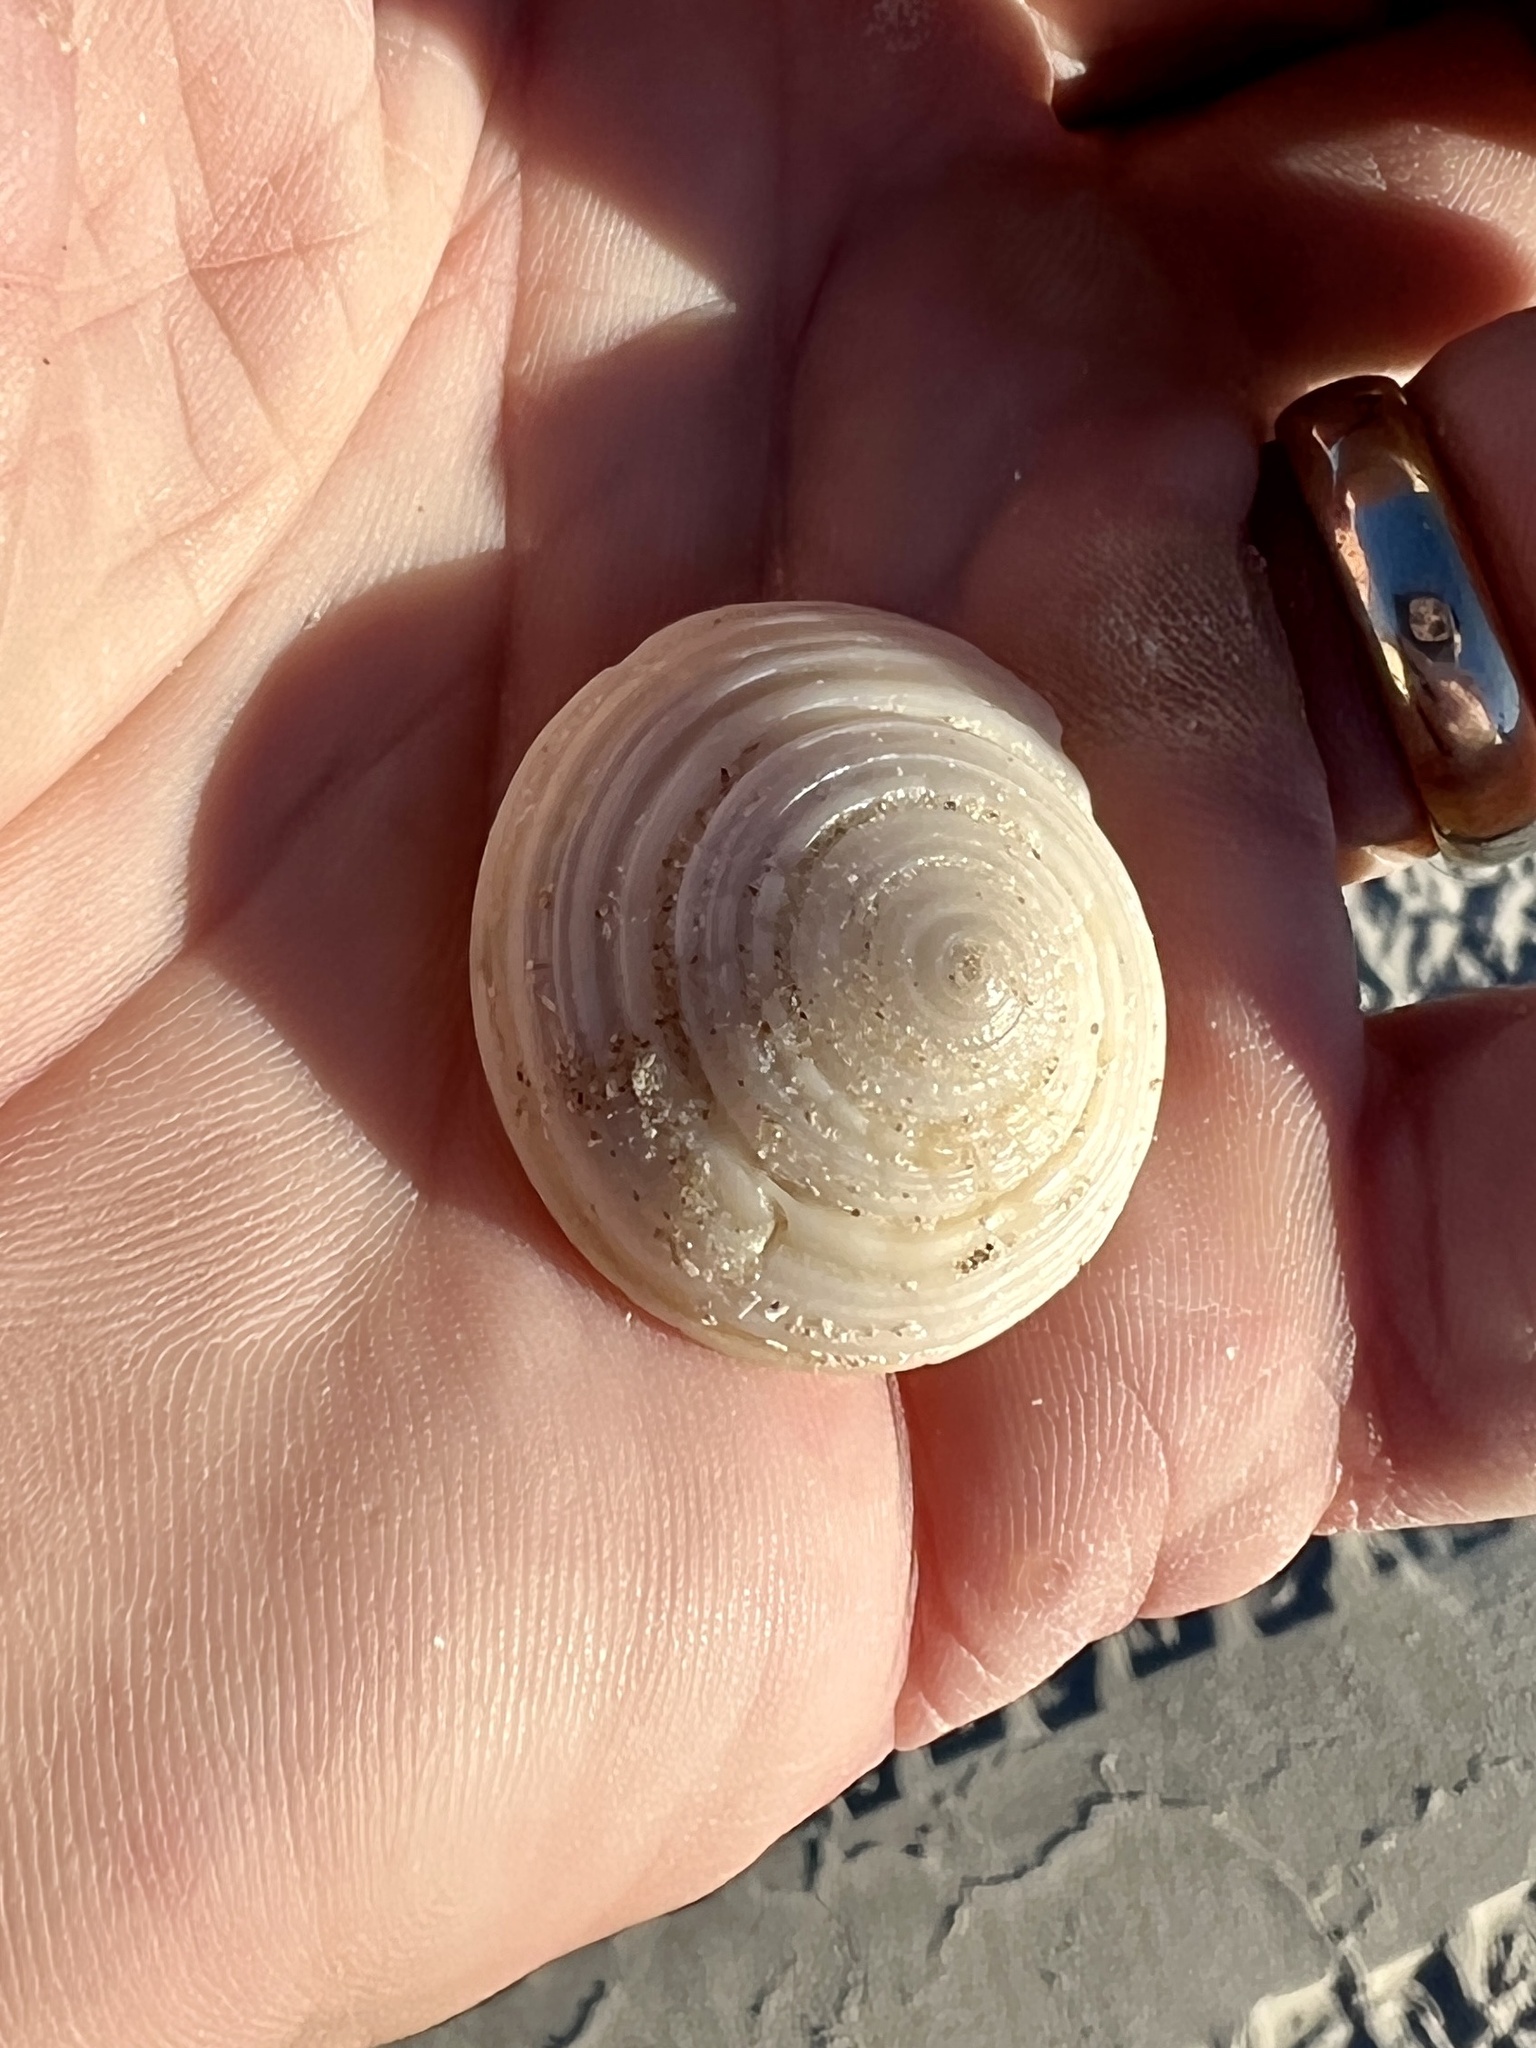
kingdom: Animalia
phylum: Mollusca
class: Gastropoda
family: Architectonicidae
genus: Architectonica
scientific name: Architectonica nobilis
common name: Common sundial
